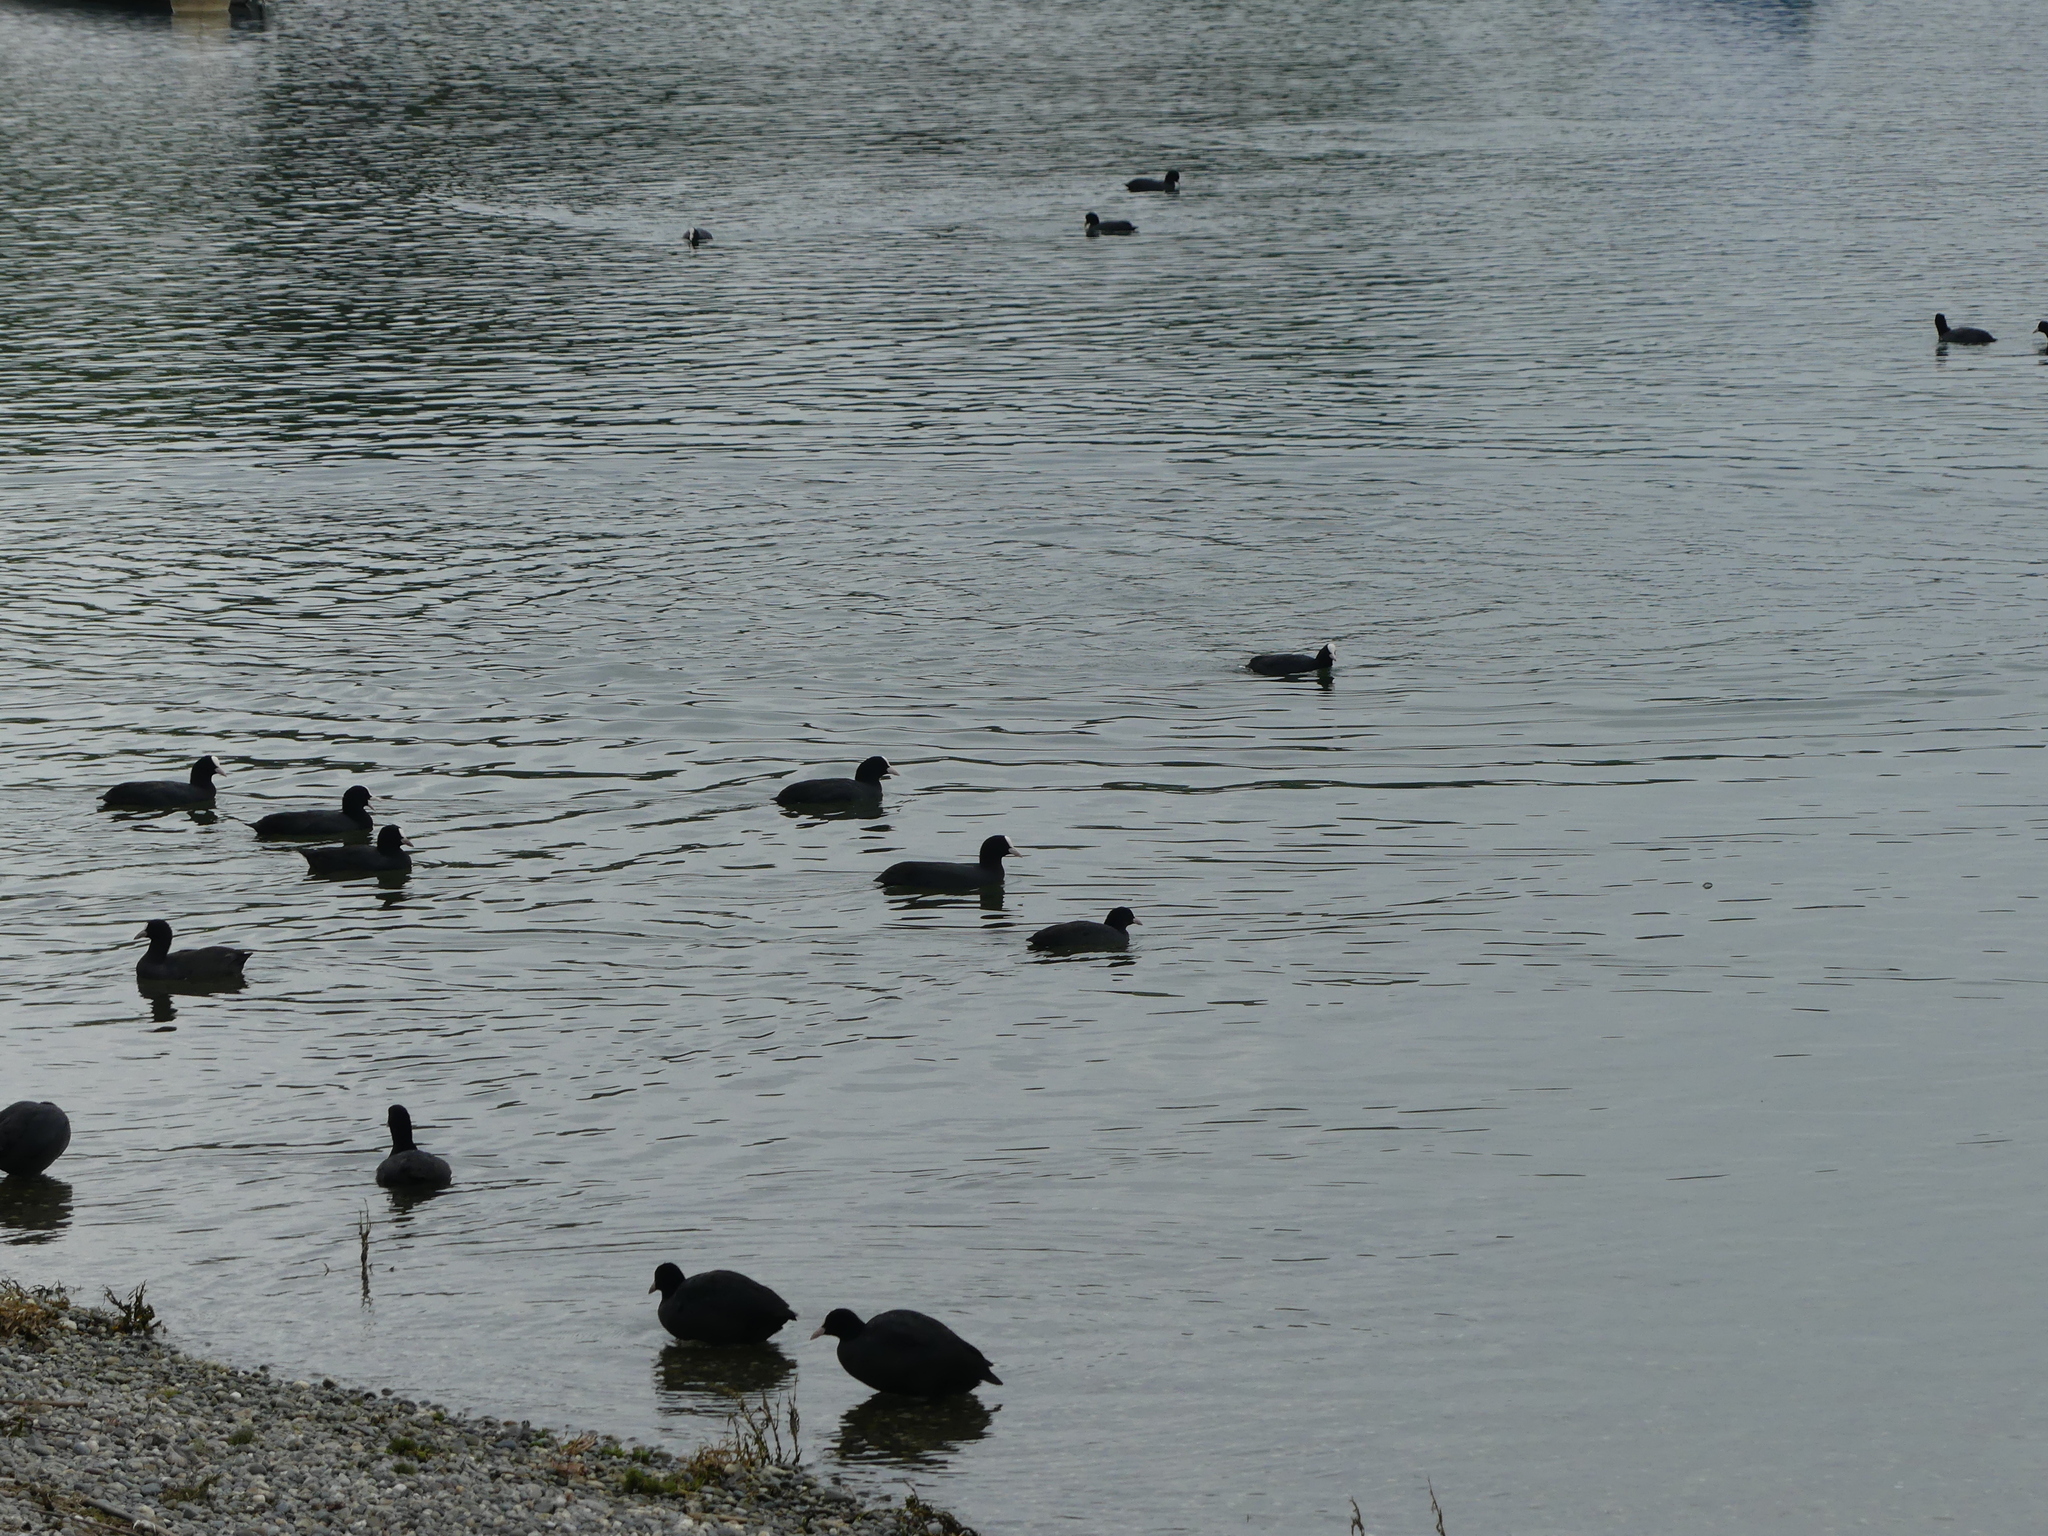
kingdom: Animalia
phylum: Chordata
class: Aves
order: Gruiformes
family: Rallidae
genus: Fulica
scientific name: Fulica atra
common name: Eurasian coot
